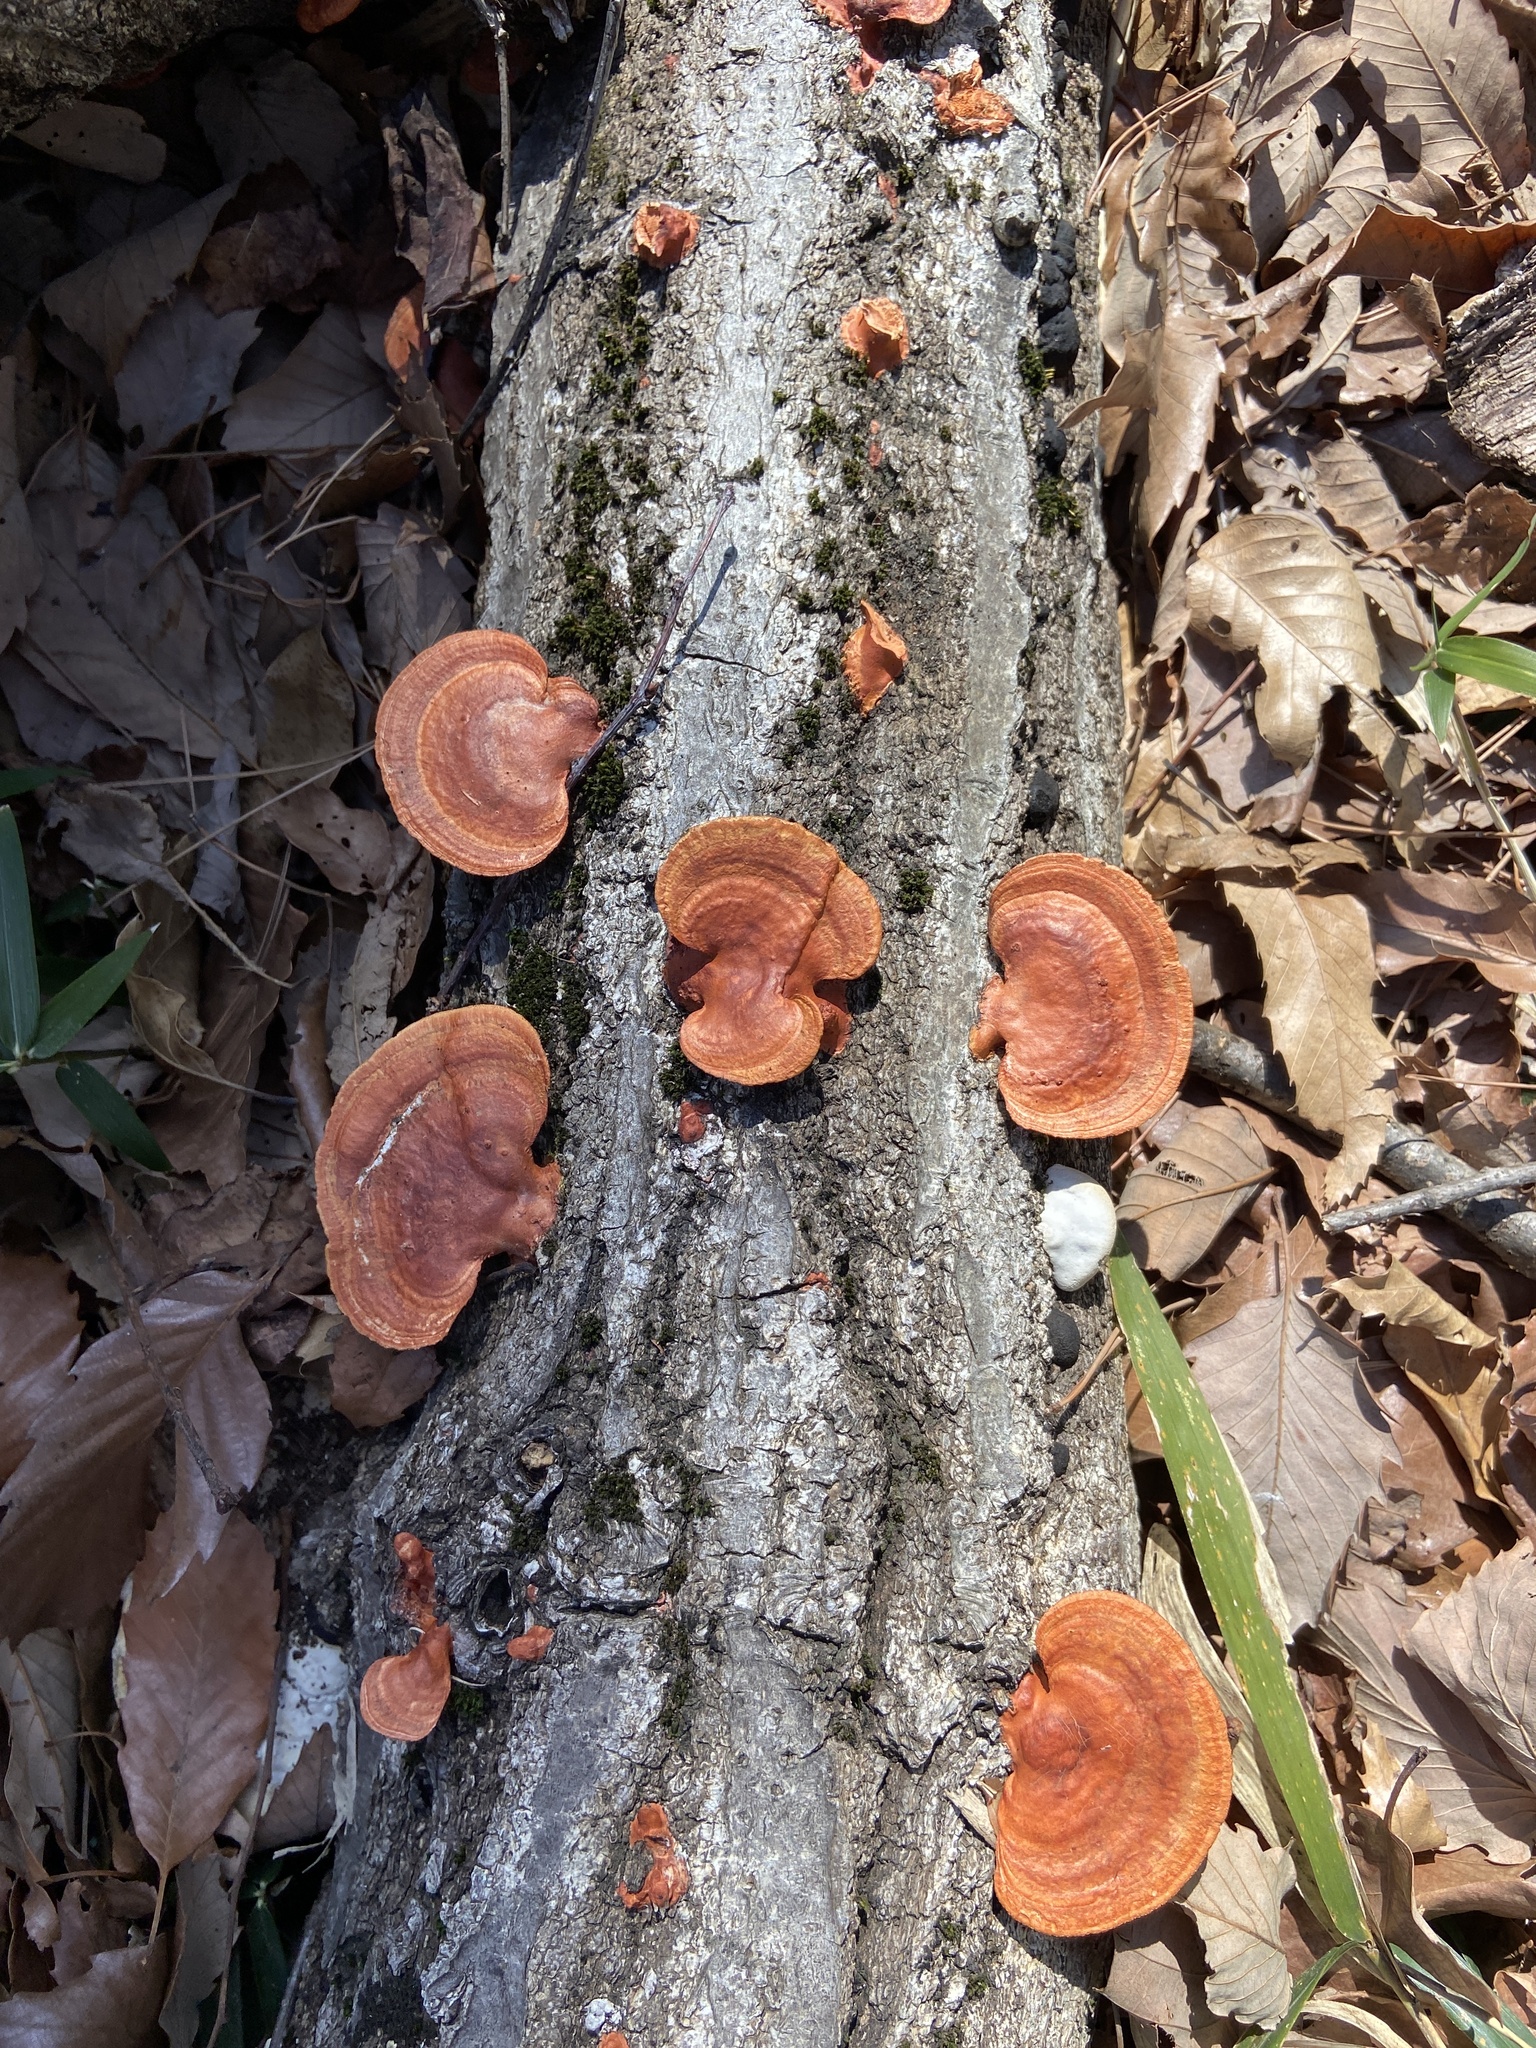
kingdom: Fungi
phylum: Basidiomycota
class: Agaricomycetes
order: Polyporales
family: Polyporaceae
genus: Trametes
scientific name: Trametes coccinea
